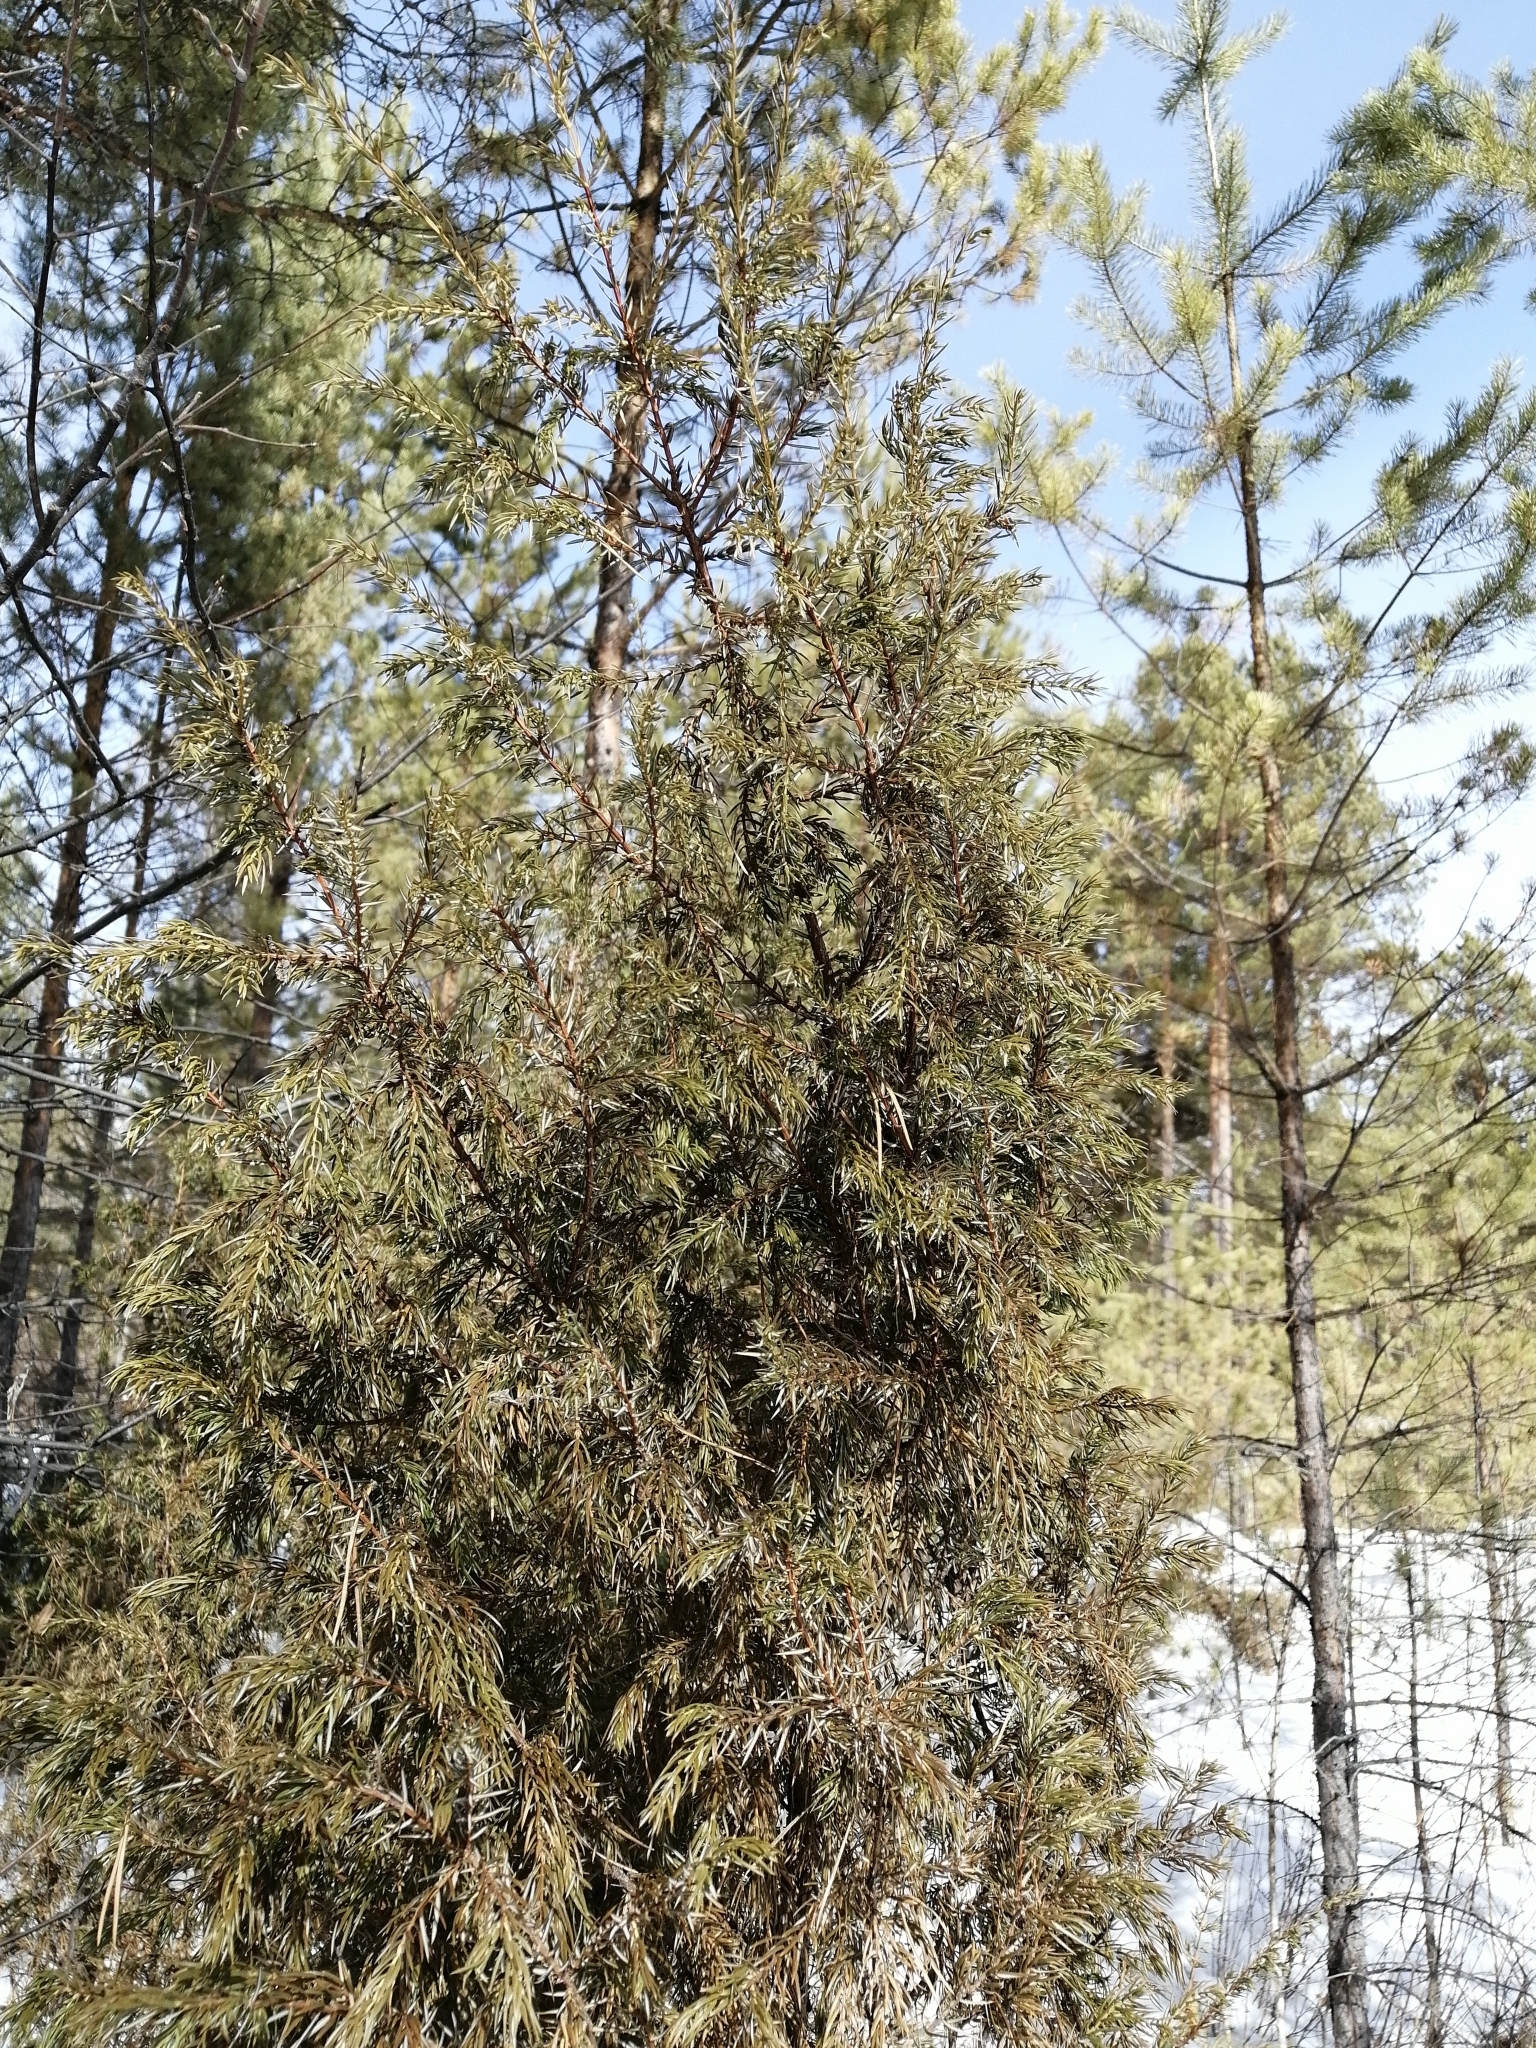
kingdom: Plantae
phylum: Tracheophyta
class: Pinopsida
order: Pinales
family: Cupressaceae
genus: Juniperus
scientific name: Juniperus communis
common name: Common juniper
